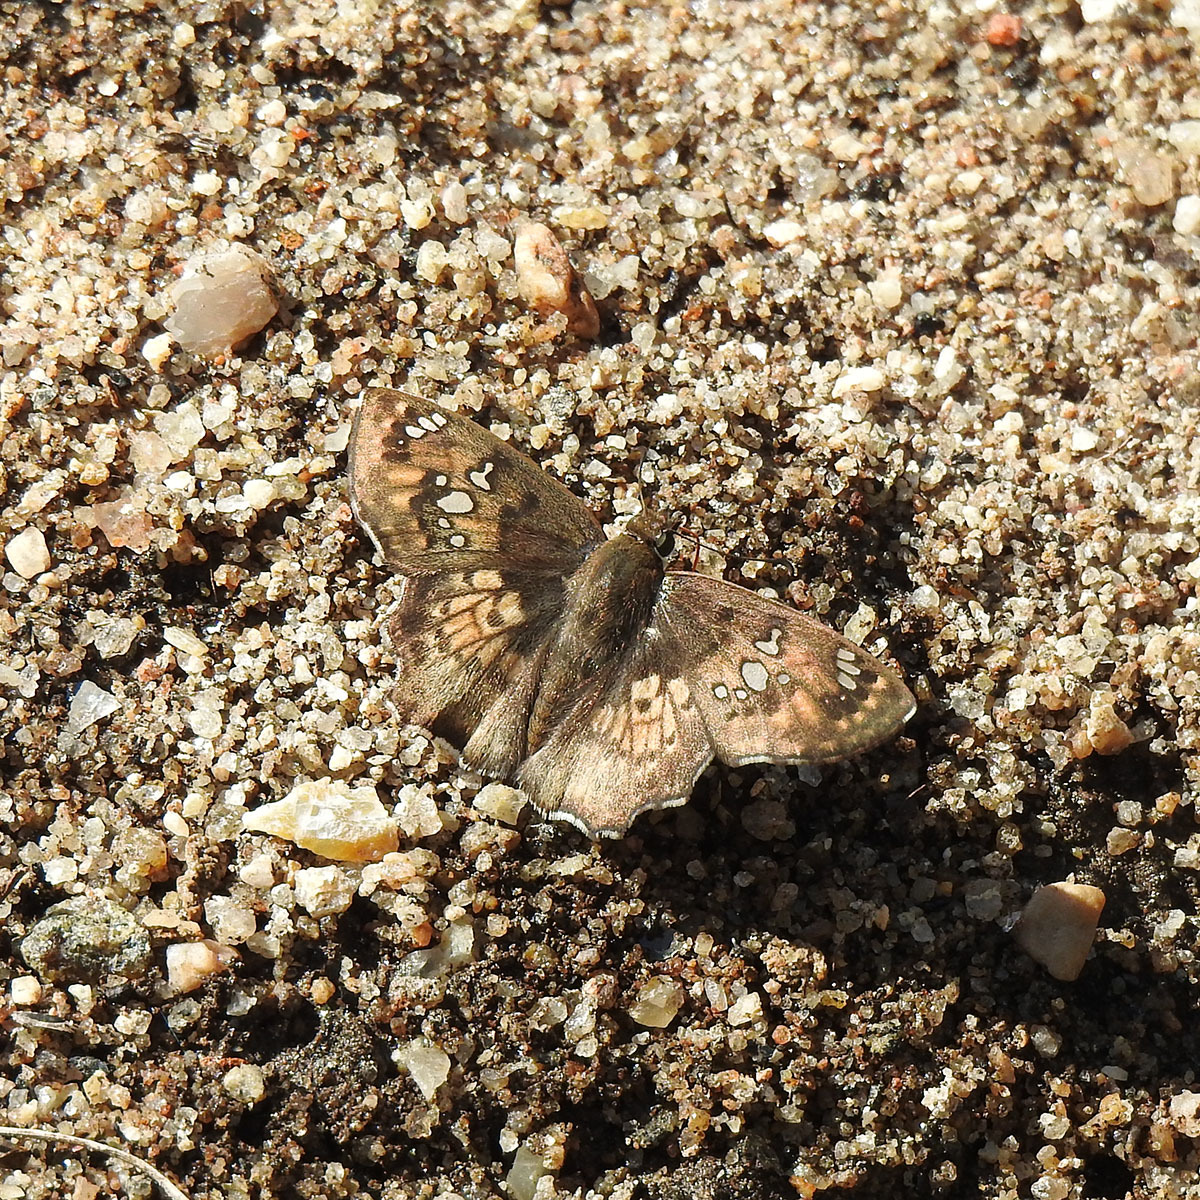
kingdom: Animalia
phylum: Arthropoda
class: Insecta
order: Lepidoptera
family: Hesperiidae
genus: Caprona
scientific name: Caprona ransonnettii
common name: Golden angle
